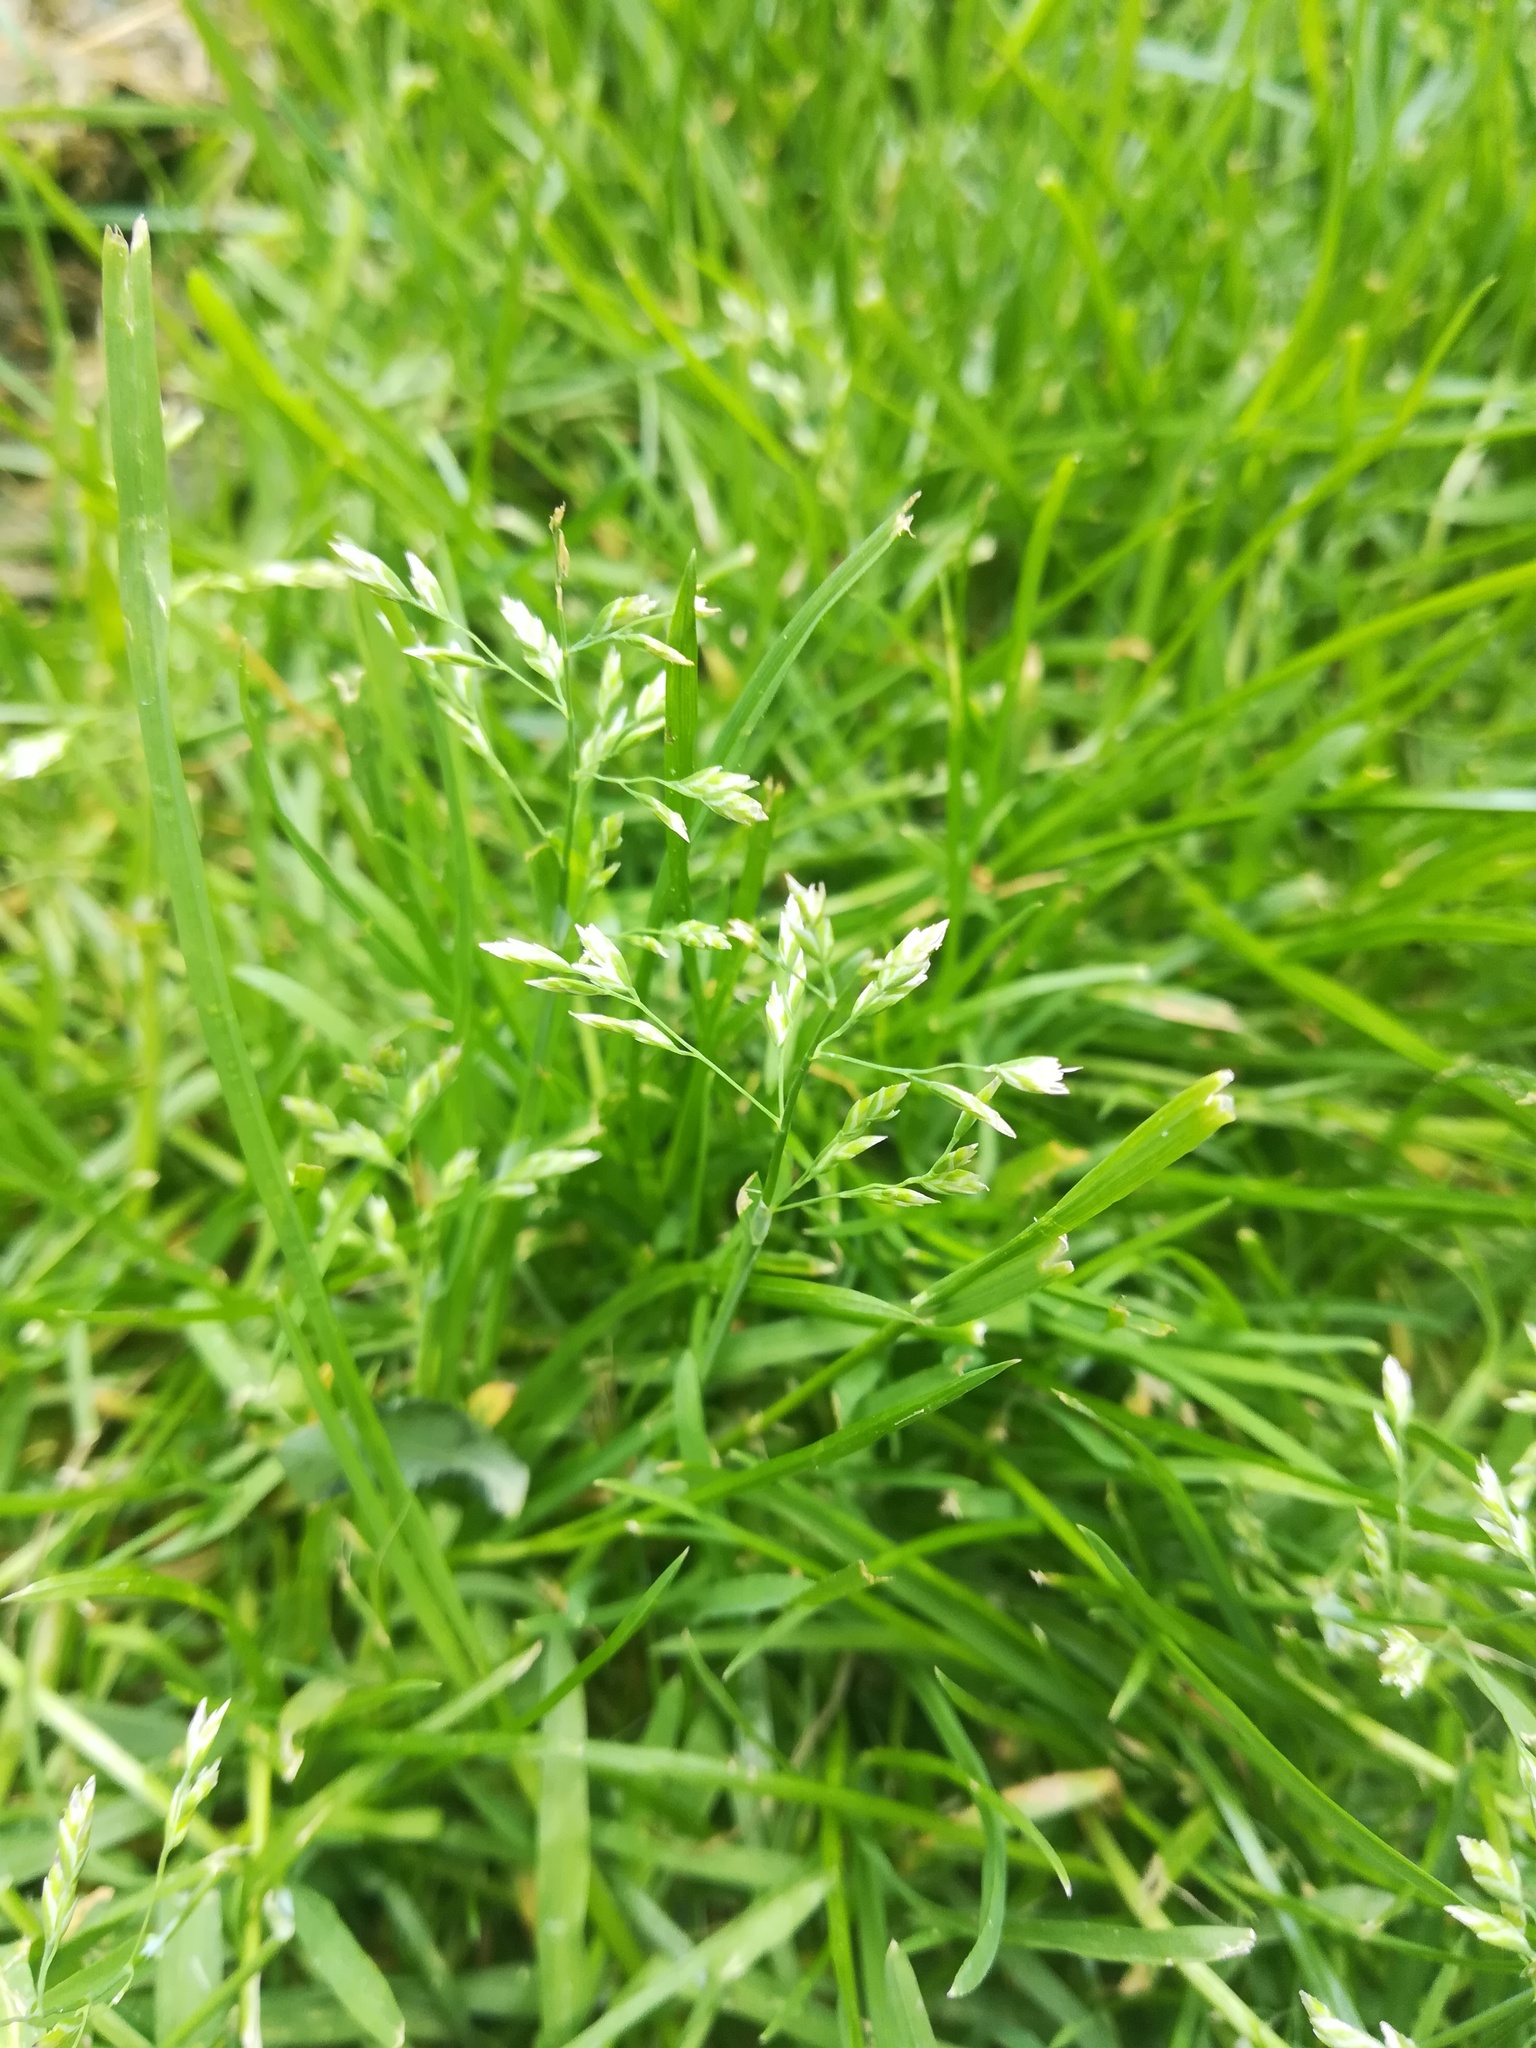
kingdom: Plantae
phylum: Tracheophyta
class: Liliopsida
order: Poales
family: Poaceae
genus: Poa
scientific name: Poa annua
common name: Annual bluegrass
